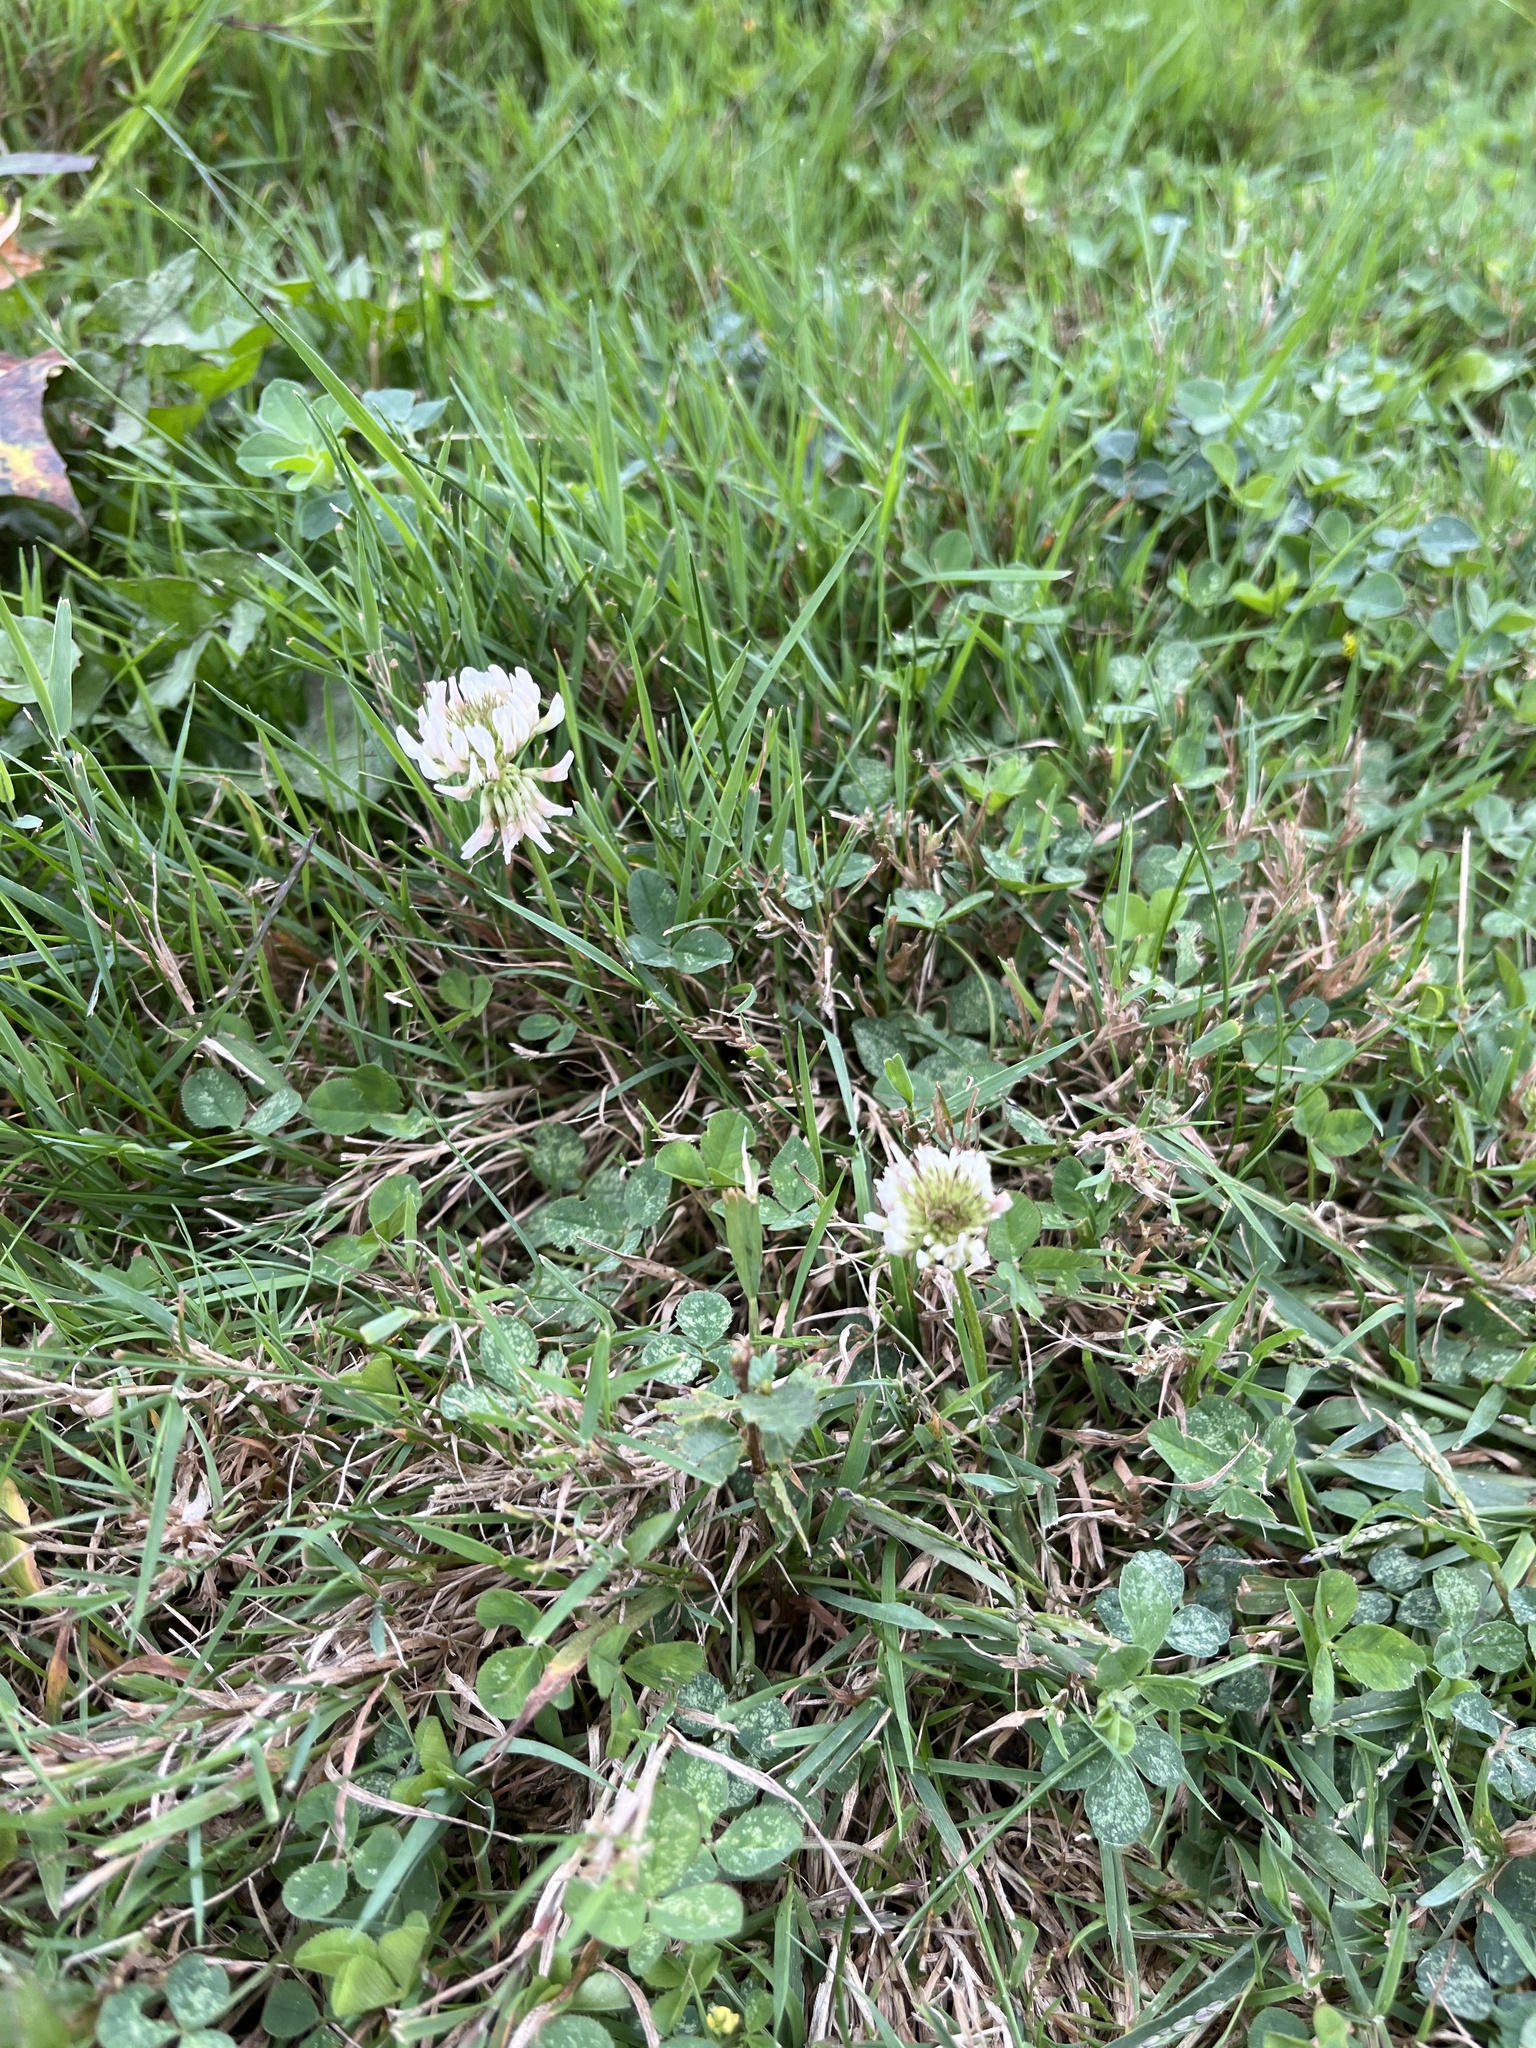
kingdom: Plantae
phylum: Tracheophyta
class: Magnoliopsida
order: Fabales
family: Fabaceae
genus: Trifolium
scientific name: Trifolium repens
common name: White clover
